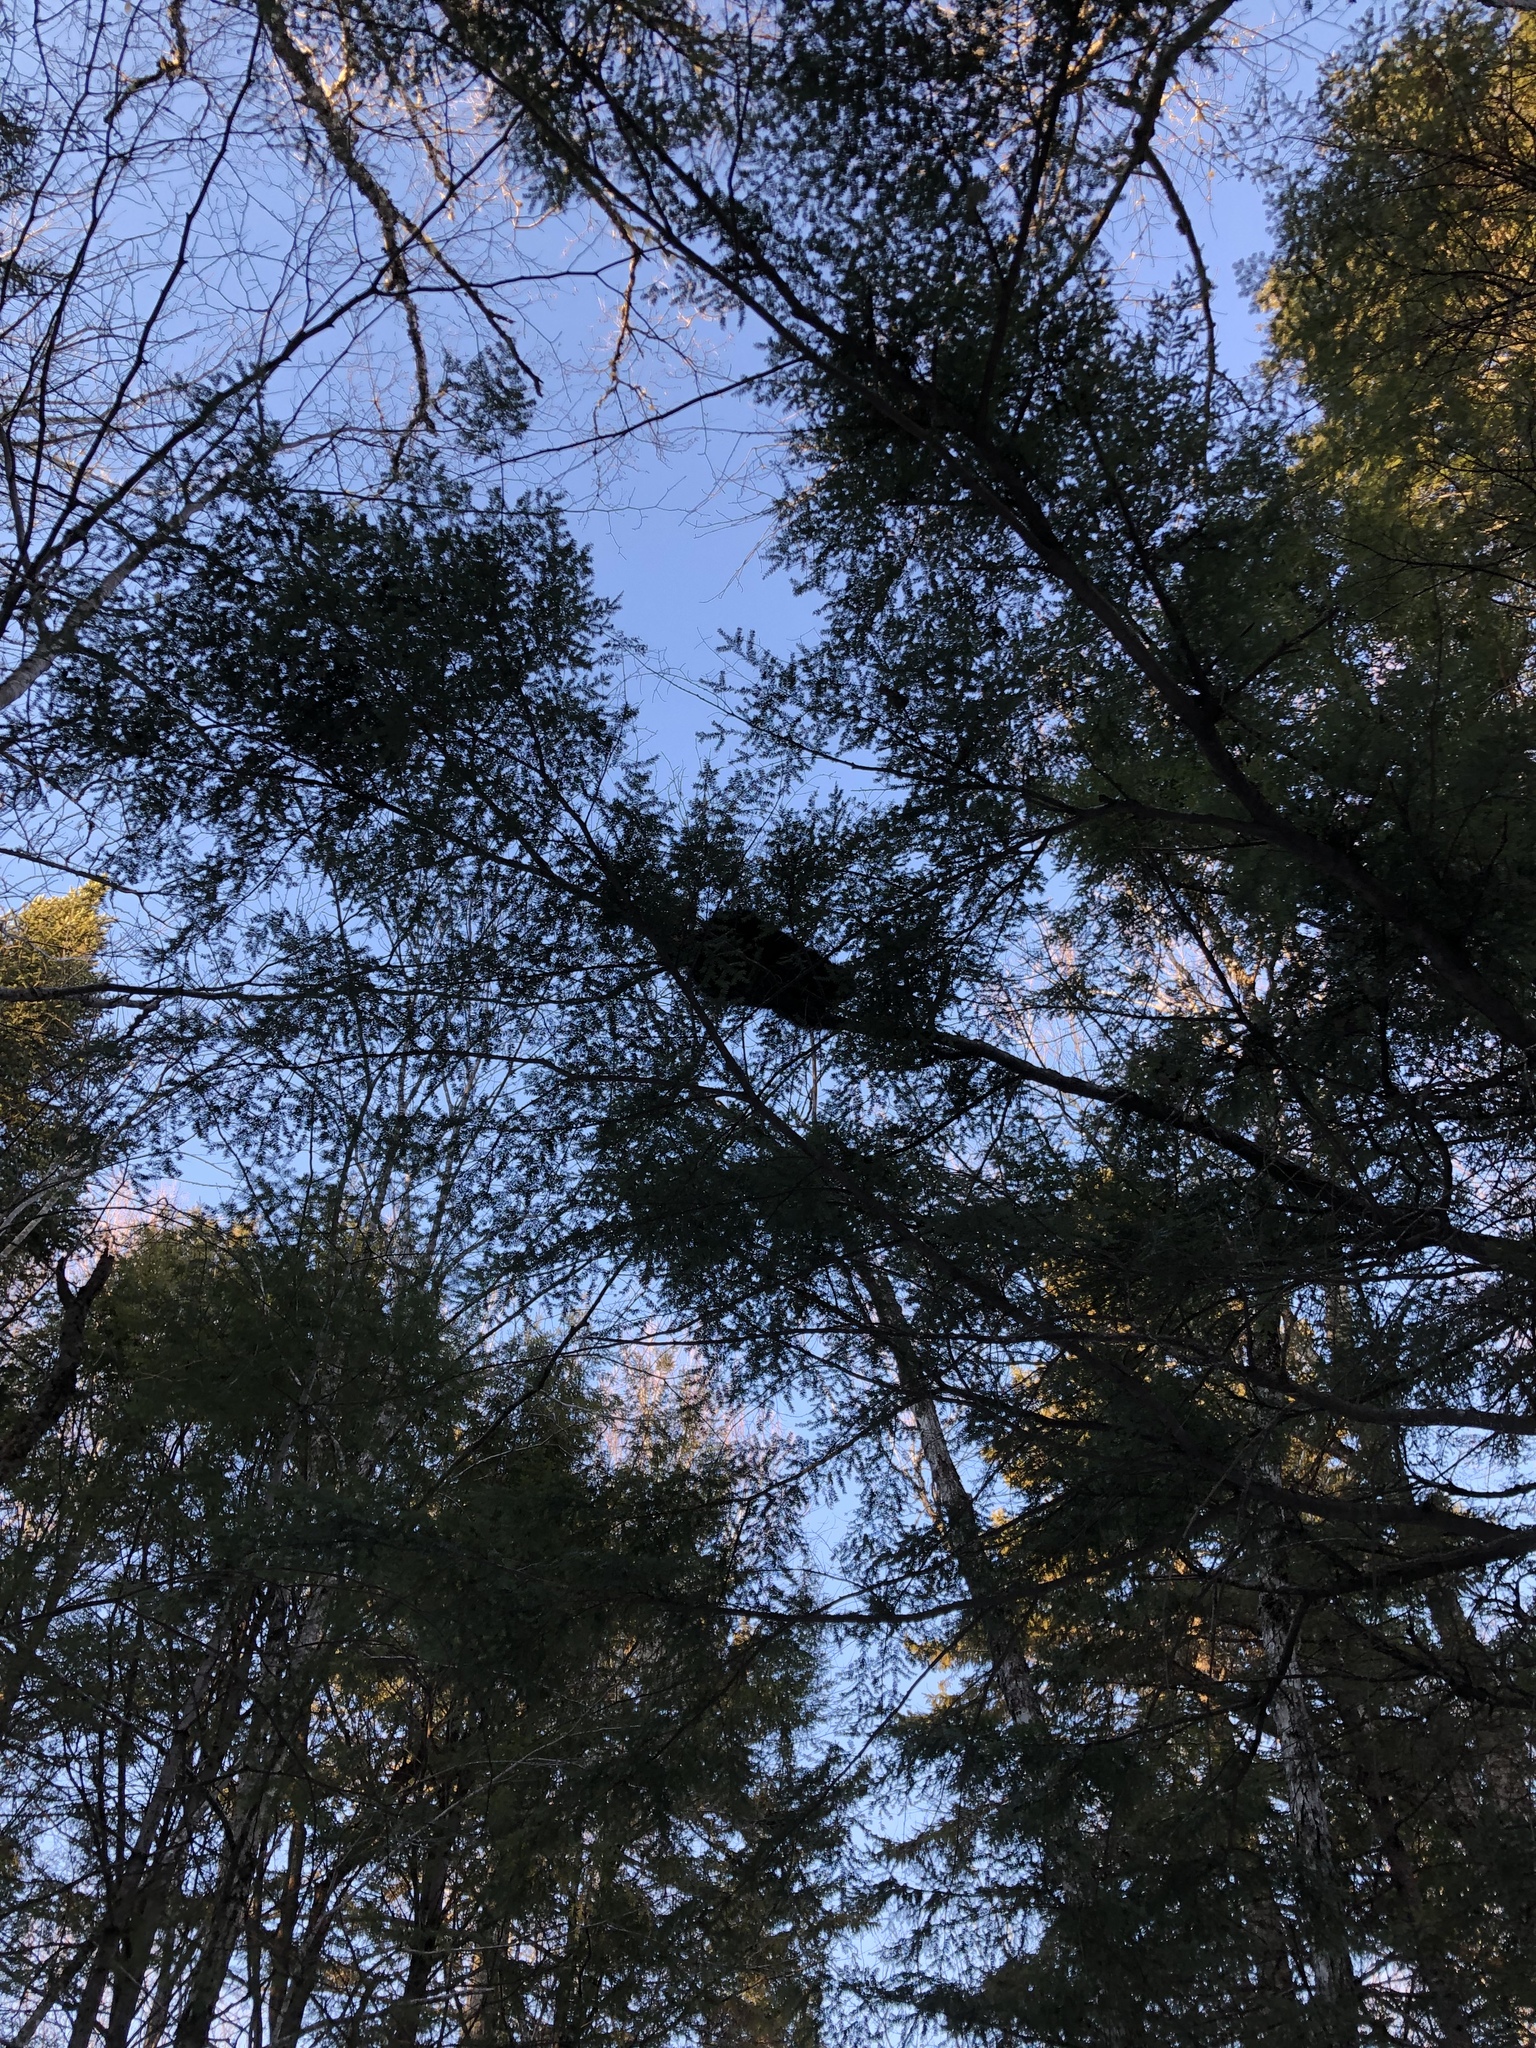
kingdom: Animalia
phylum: Chordata
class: Mammalia
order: Rodentia
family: Erethizontidae
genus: Erethizon
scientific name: Erethizon dorsatus
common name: North american porcupine
